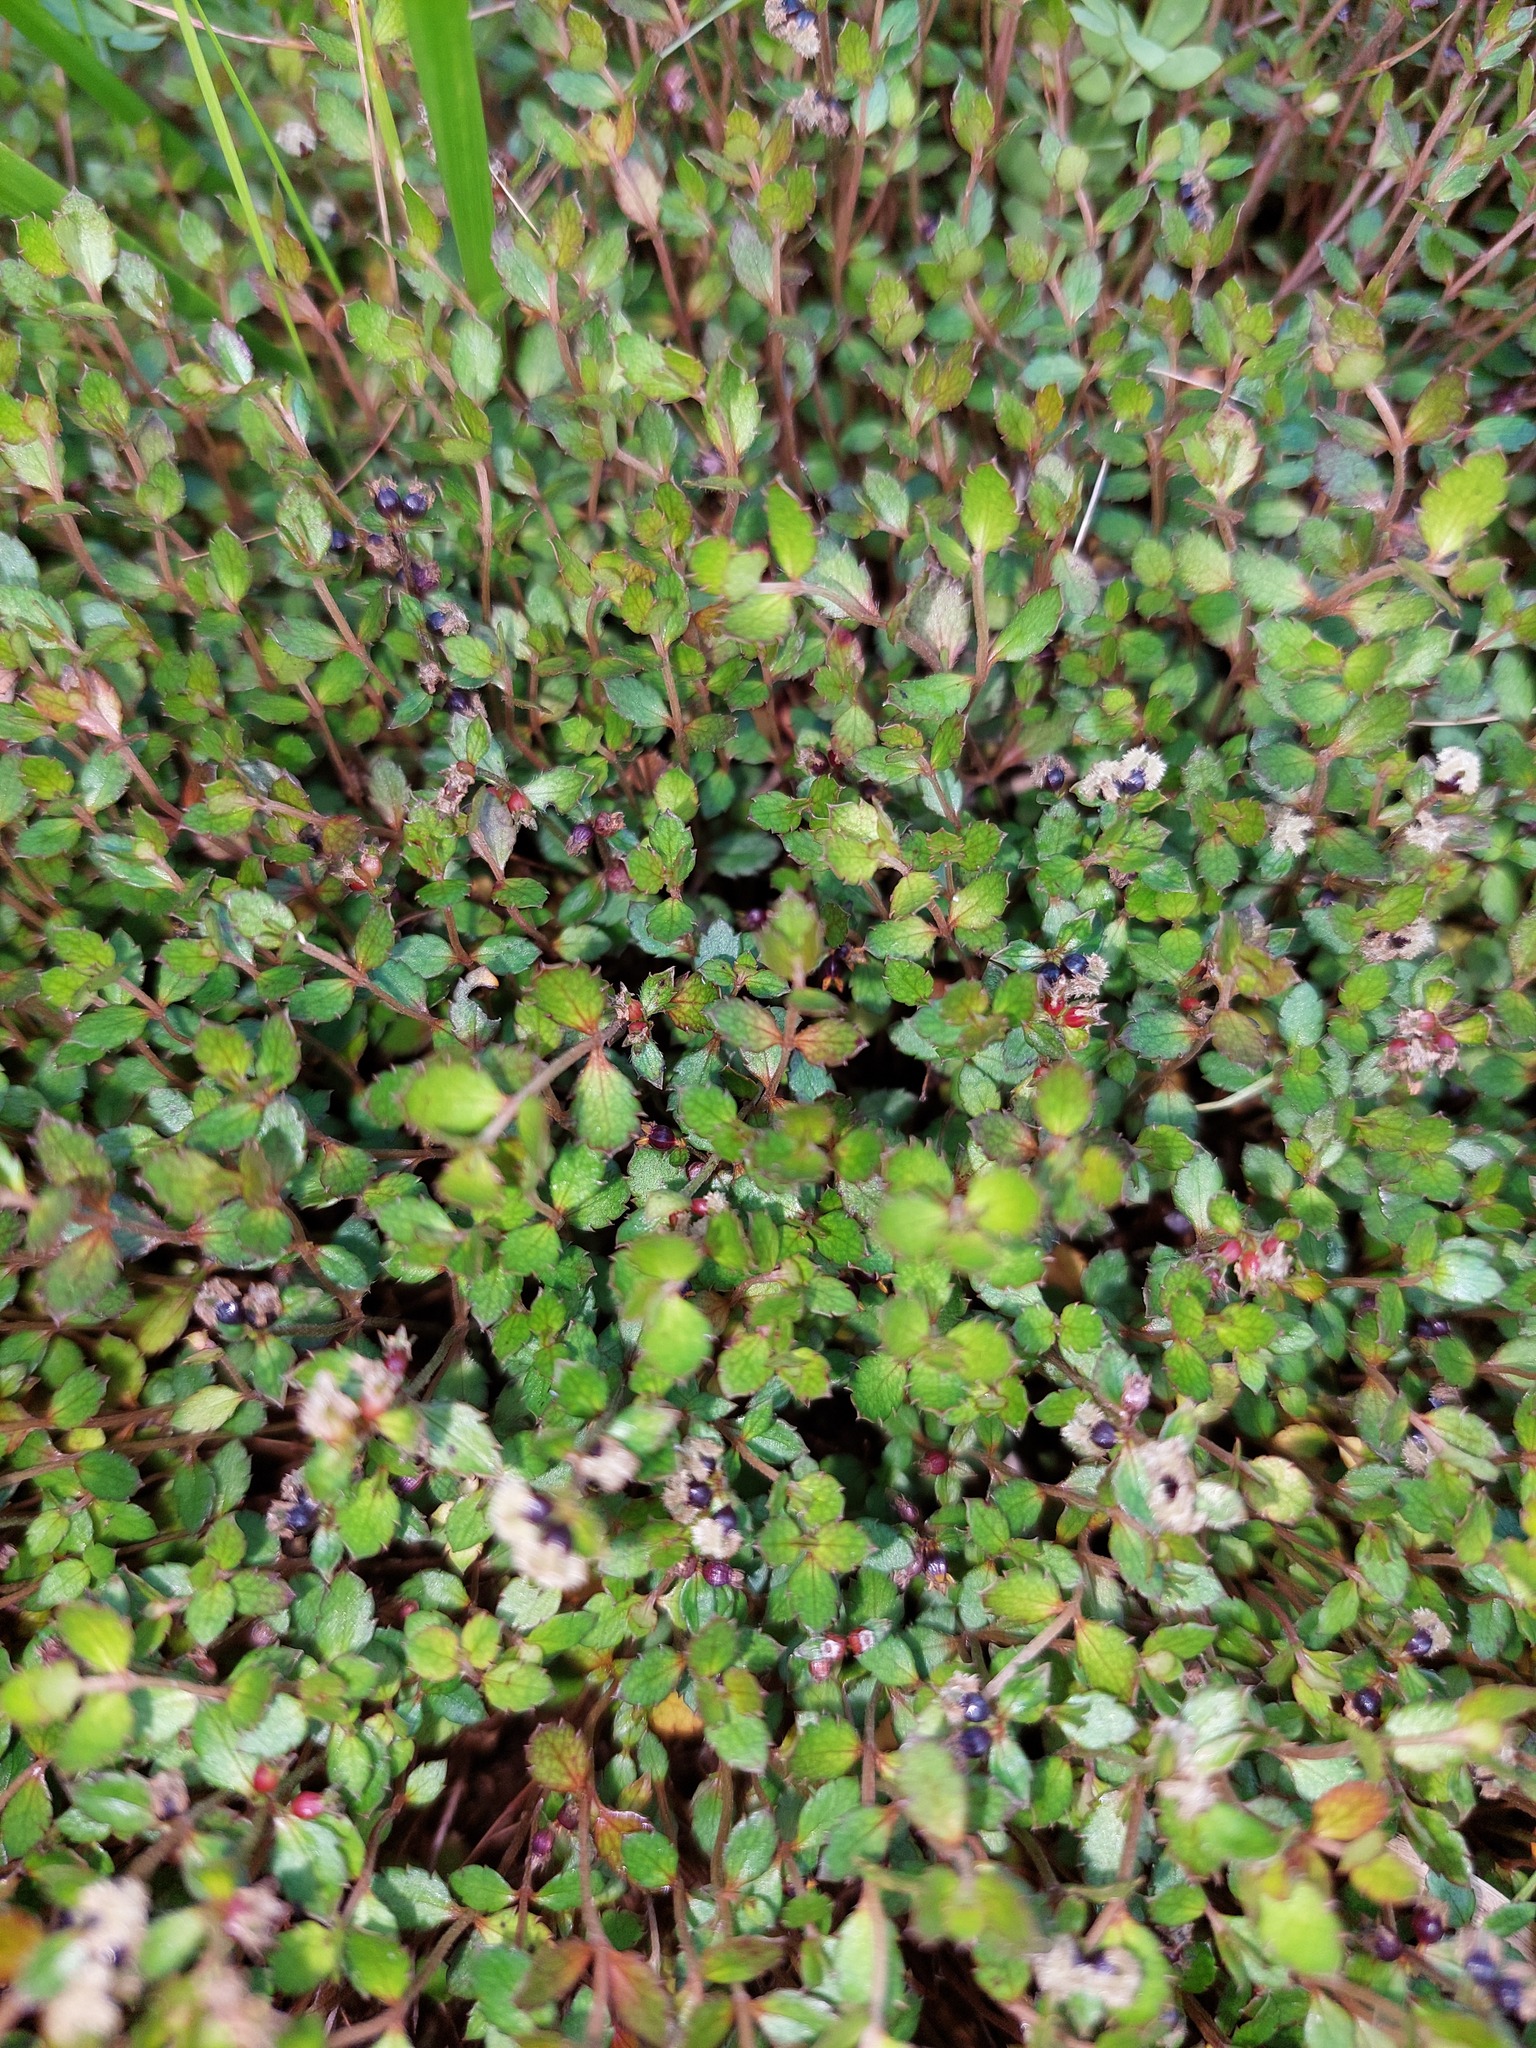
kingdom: Plantae
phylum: Tracheophyta
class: Magnoliopsida
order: Saxifragales
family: Haloragaceae
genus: Gonocarpus
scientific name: Gonocarpus aggregatus
